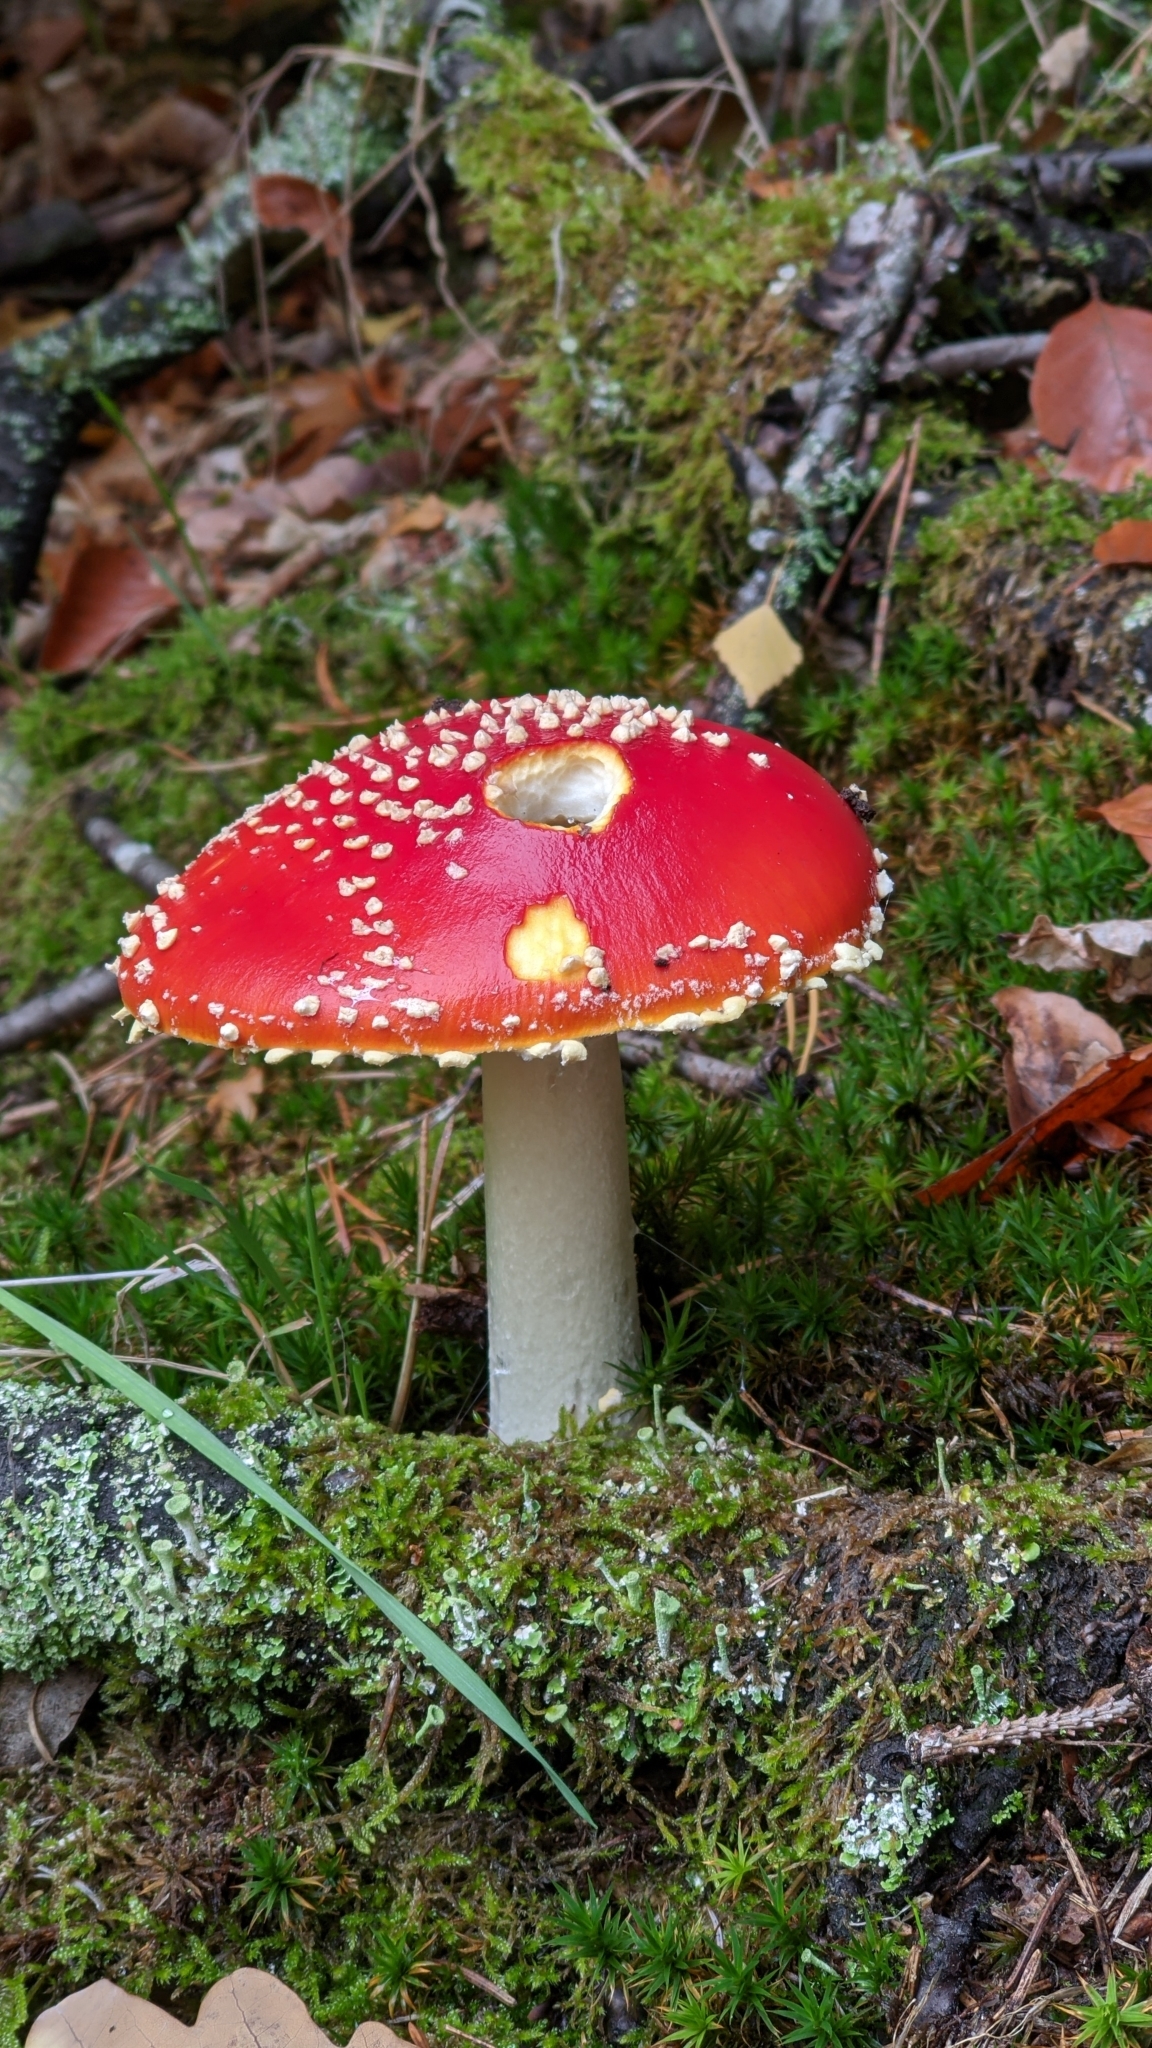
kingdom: Fungi
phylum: Basidiomycota
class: Agaricomycetes
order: Agaricales
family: Amanitaceae
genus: Amanita
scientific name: Amanita muscaria
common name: Fly agaric
